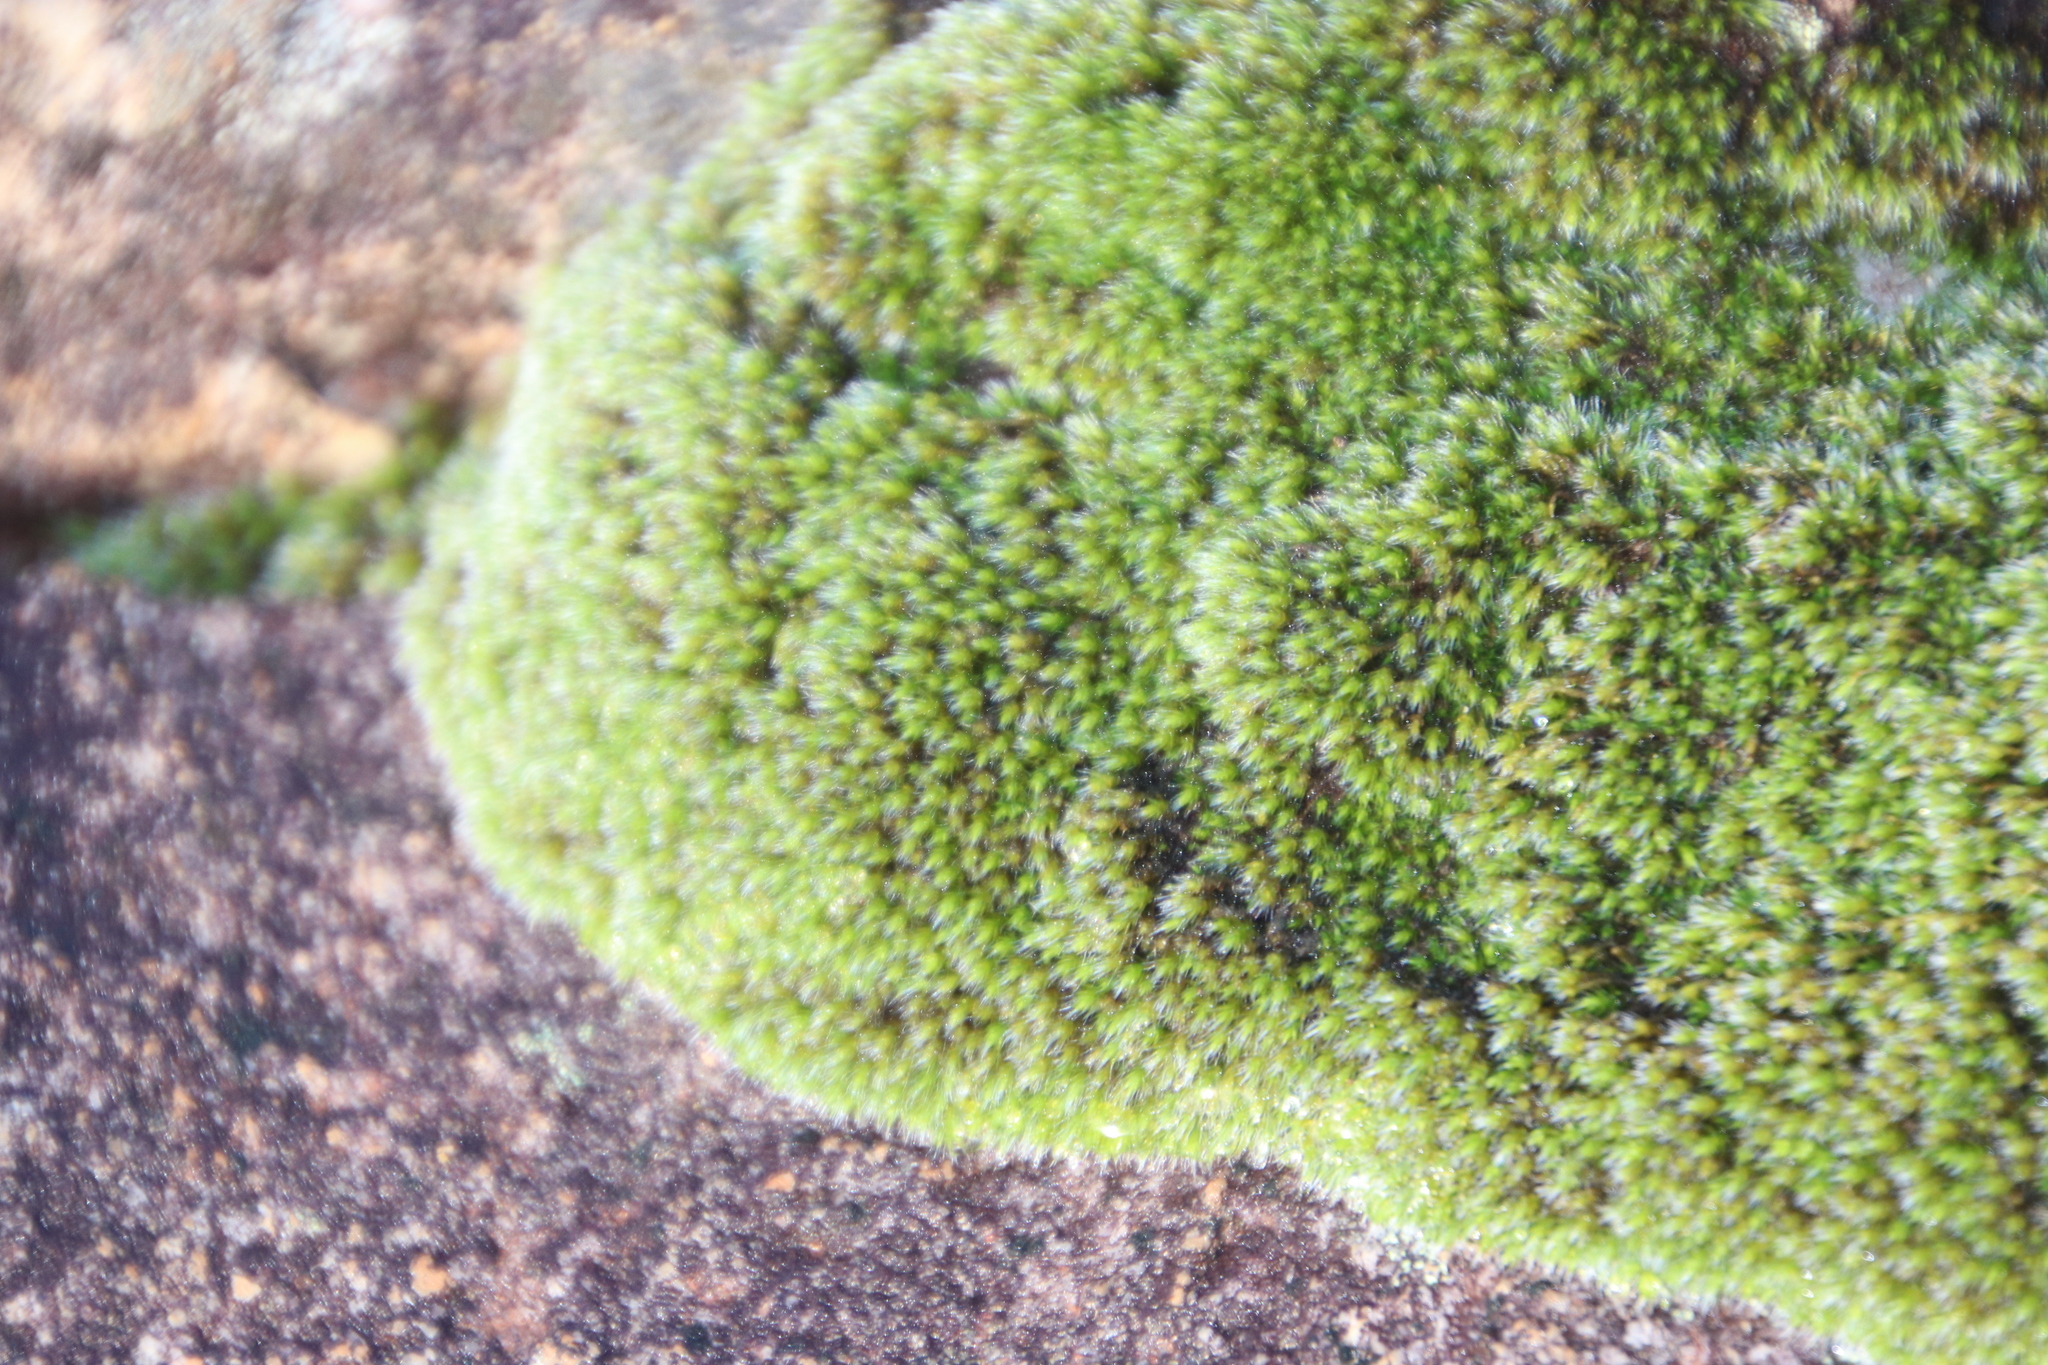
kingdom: Plantae
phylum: Bryophyta
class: Bryopsida
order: Grimmiales
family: Grimmiaceae
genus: Grimmia
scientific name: Grimmia laevigata
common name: Hoary grimmia
